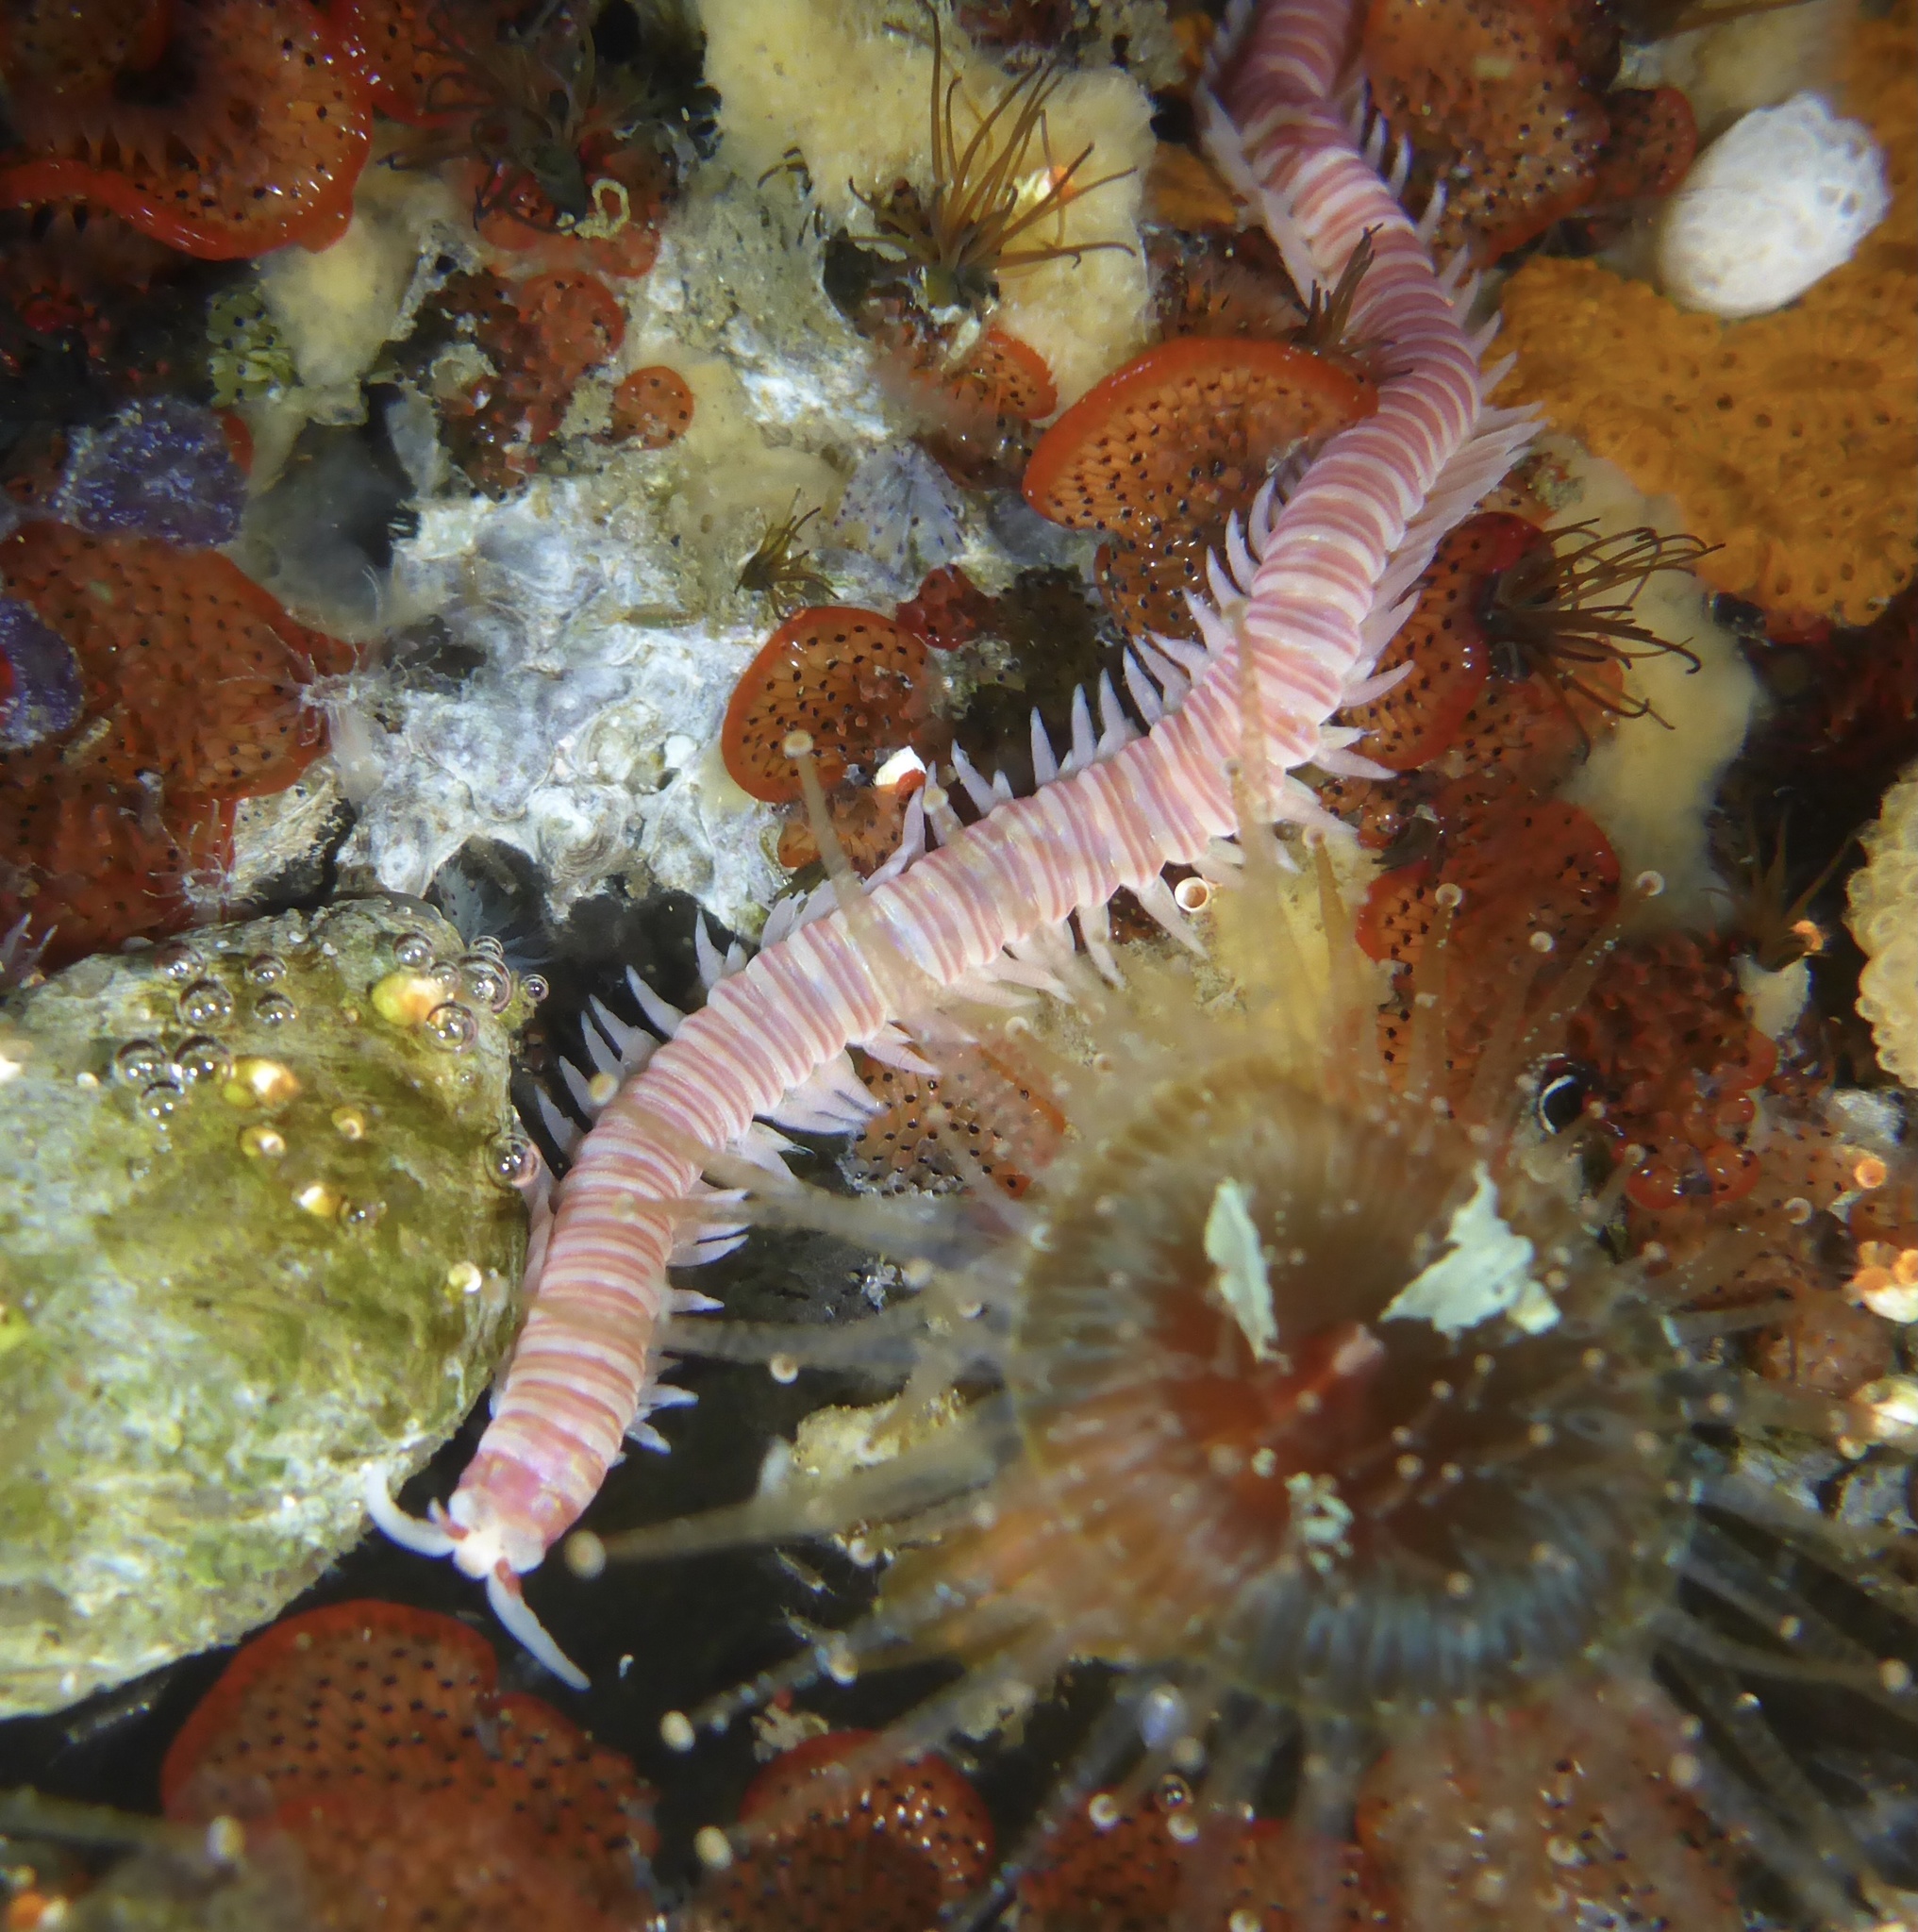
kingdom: Animalia
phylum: Annelida
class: Polychaeta
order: Eunicida
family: Dorvilleidae
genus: Dorvillea
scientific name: Dorvillea moniloceras
